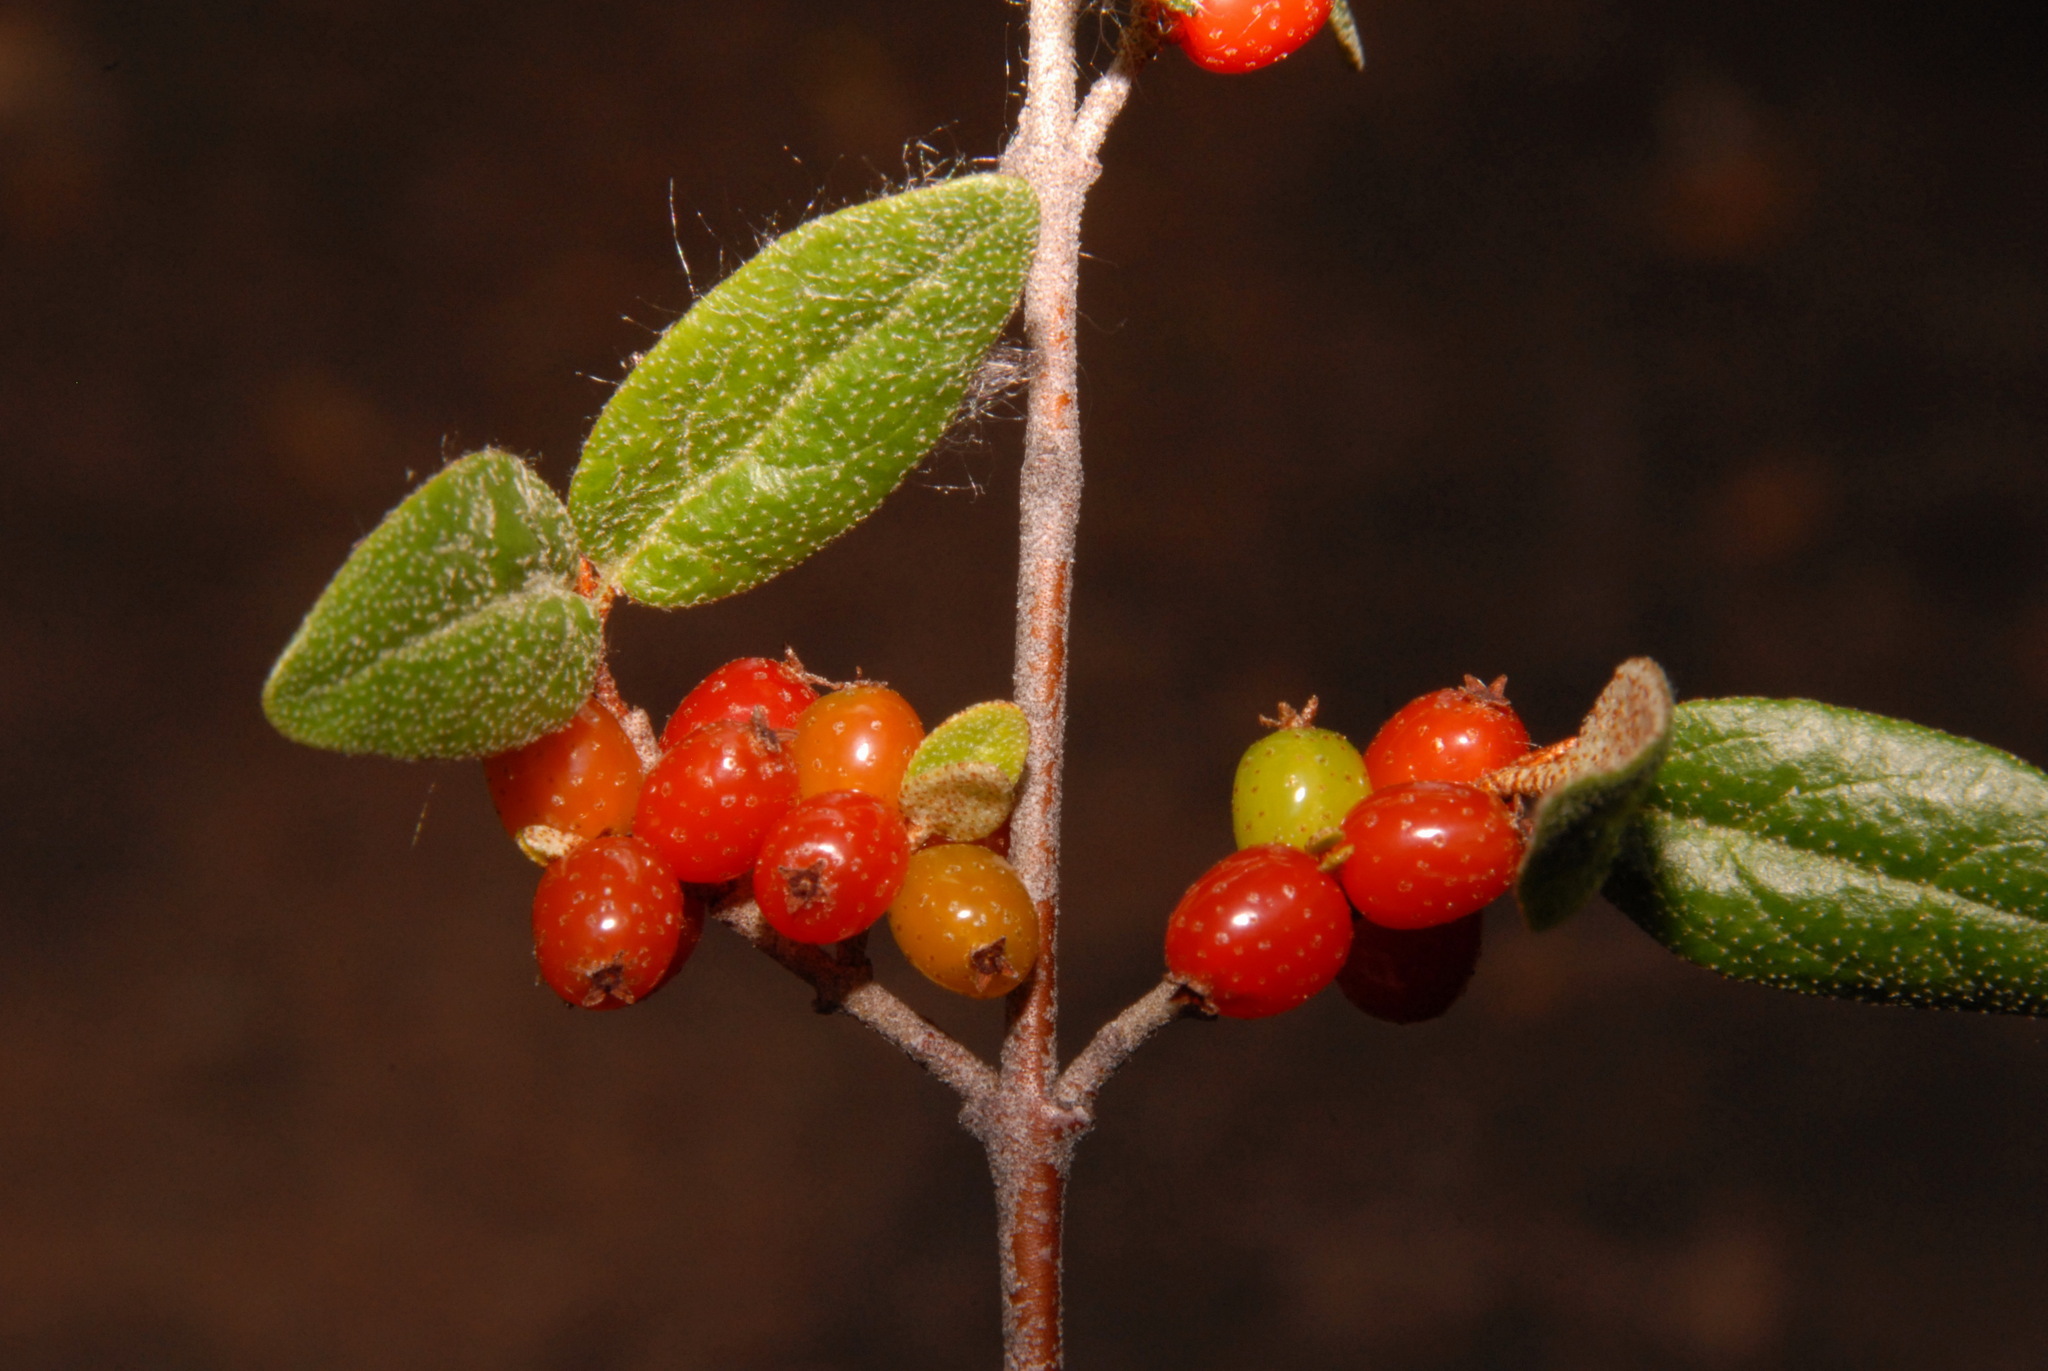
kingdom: Plantae
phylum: Tracheophyta
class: Magnoliopsida
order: Rosales
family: Elaeagnaceae
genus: Shepherdia
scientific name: Shepherdia canadensis
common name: Soapberry
